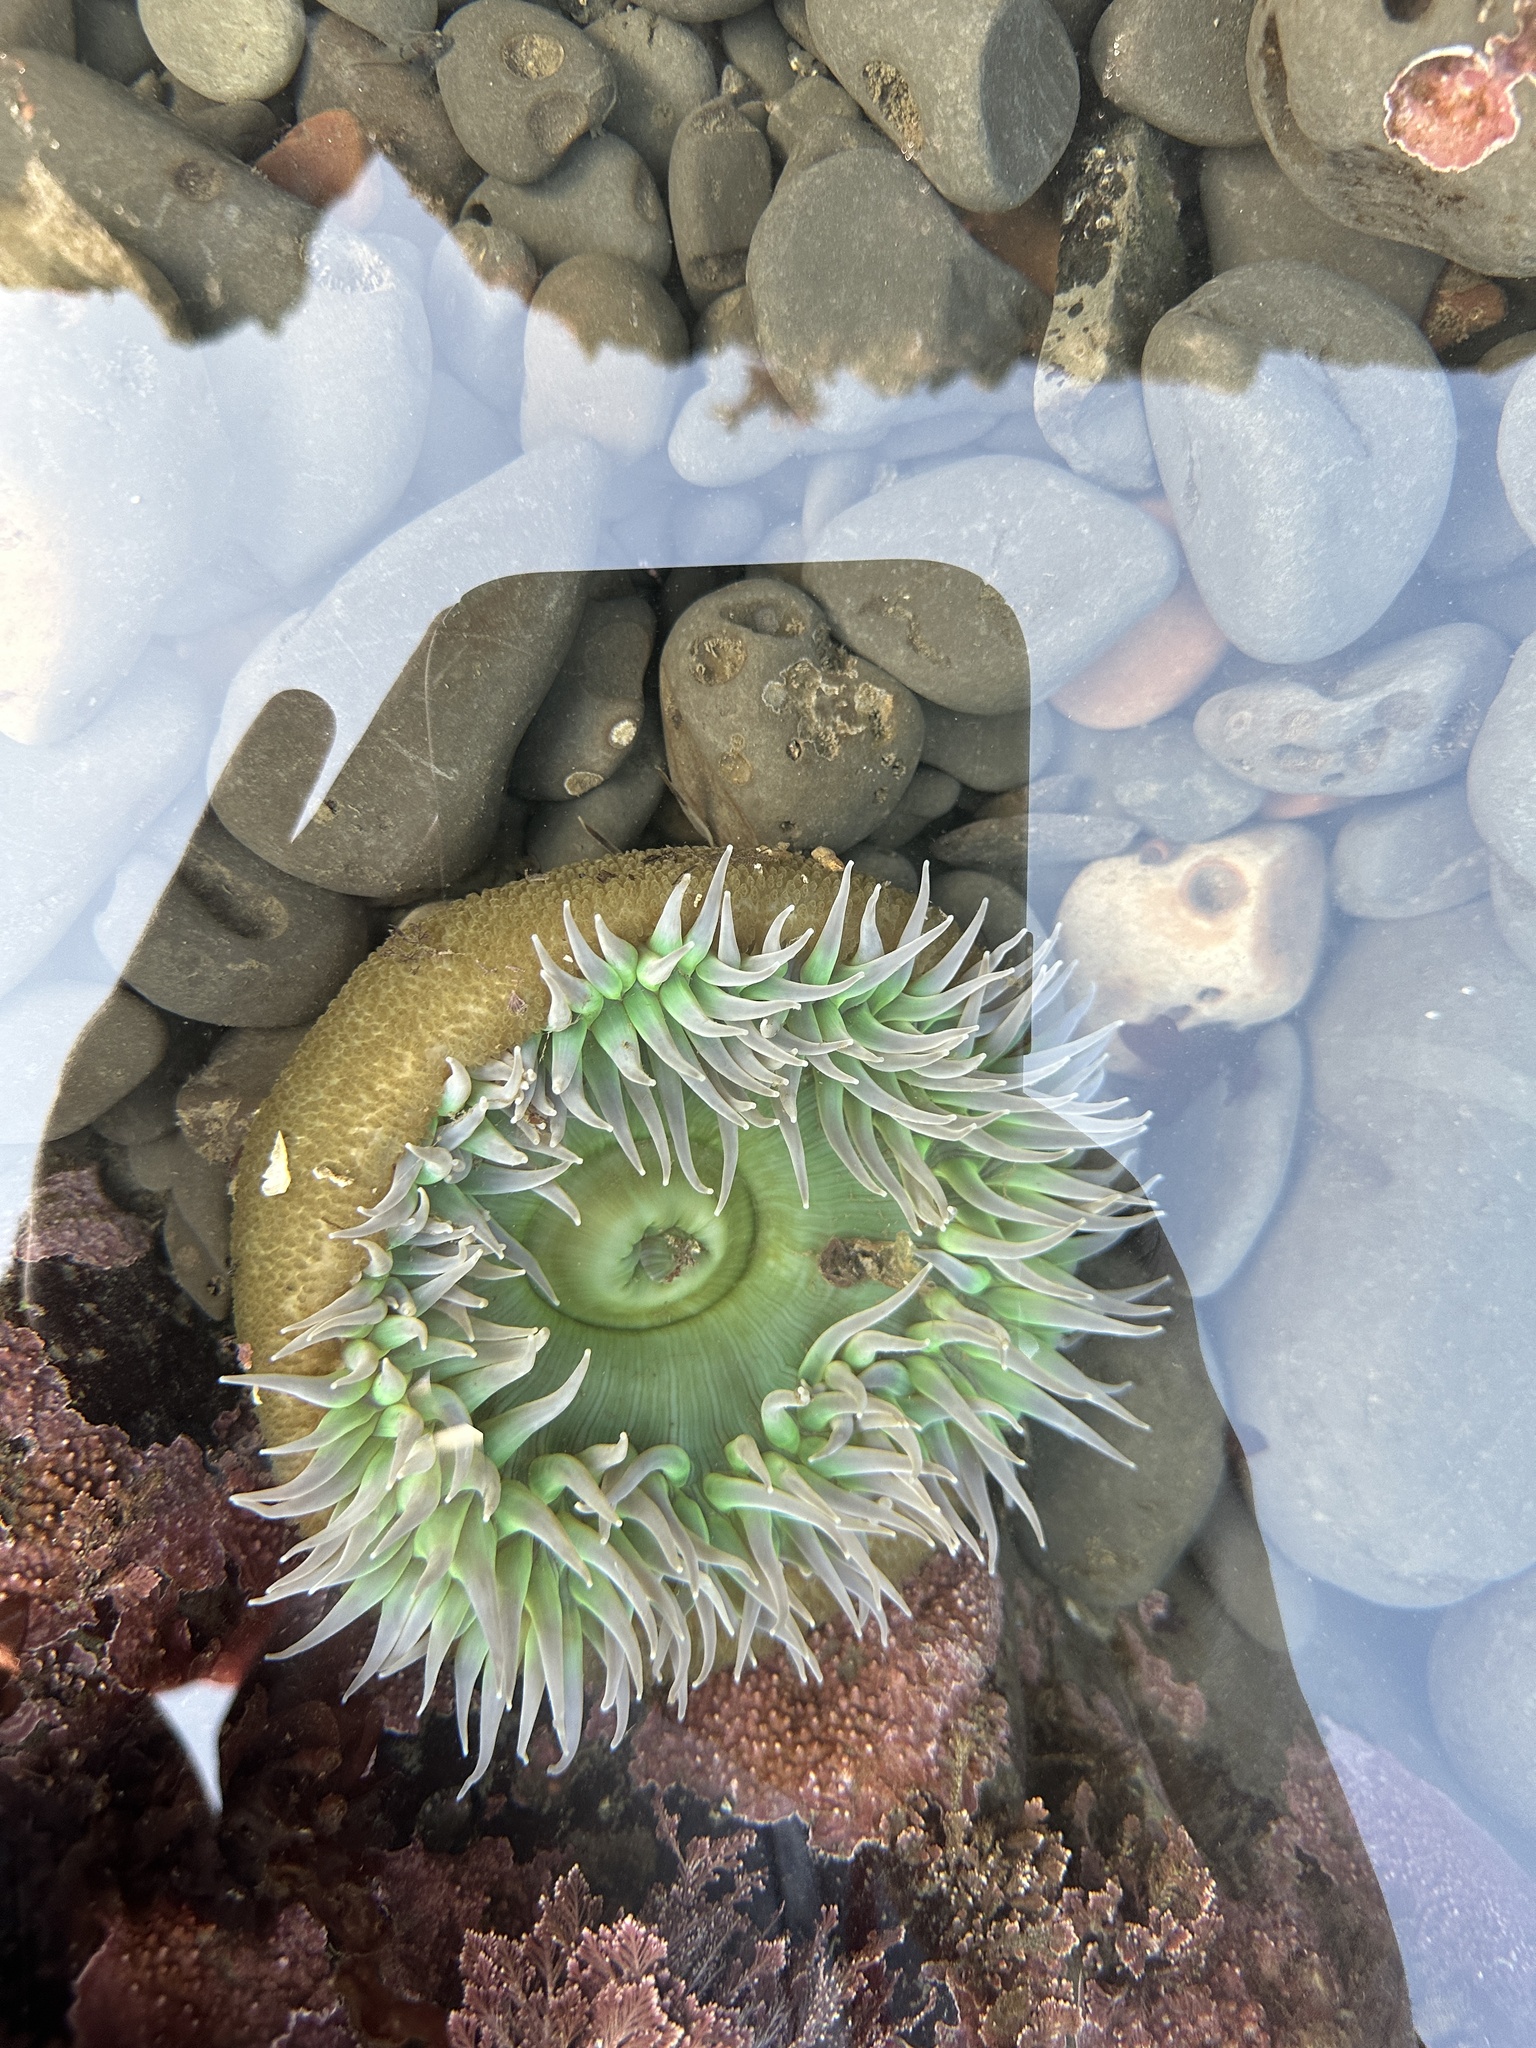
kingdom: Animalia
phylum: Cnidaria
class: Anthozoa
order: Actiniaria
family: Actiniidae
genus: Anthopleura
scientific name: Anthopleura xanthogrammica
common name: Giant green anemone
